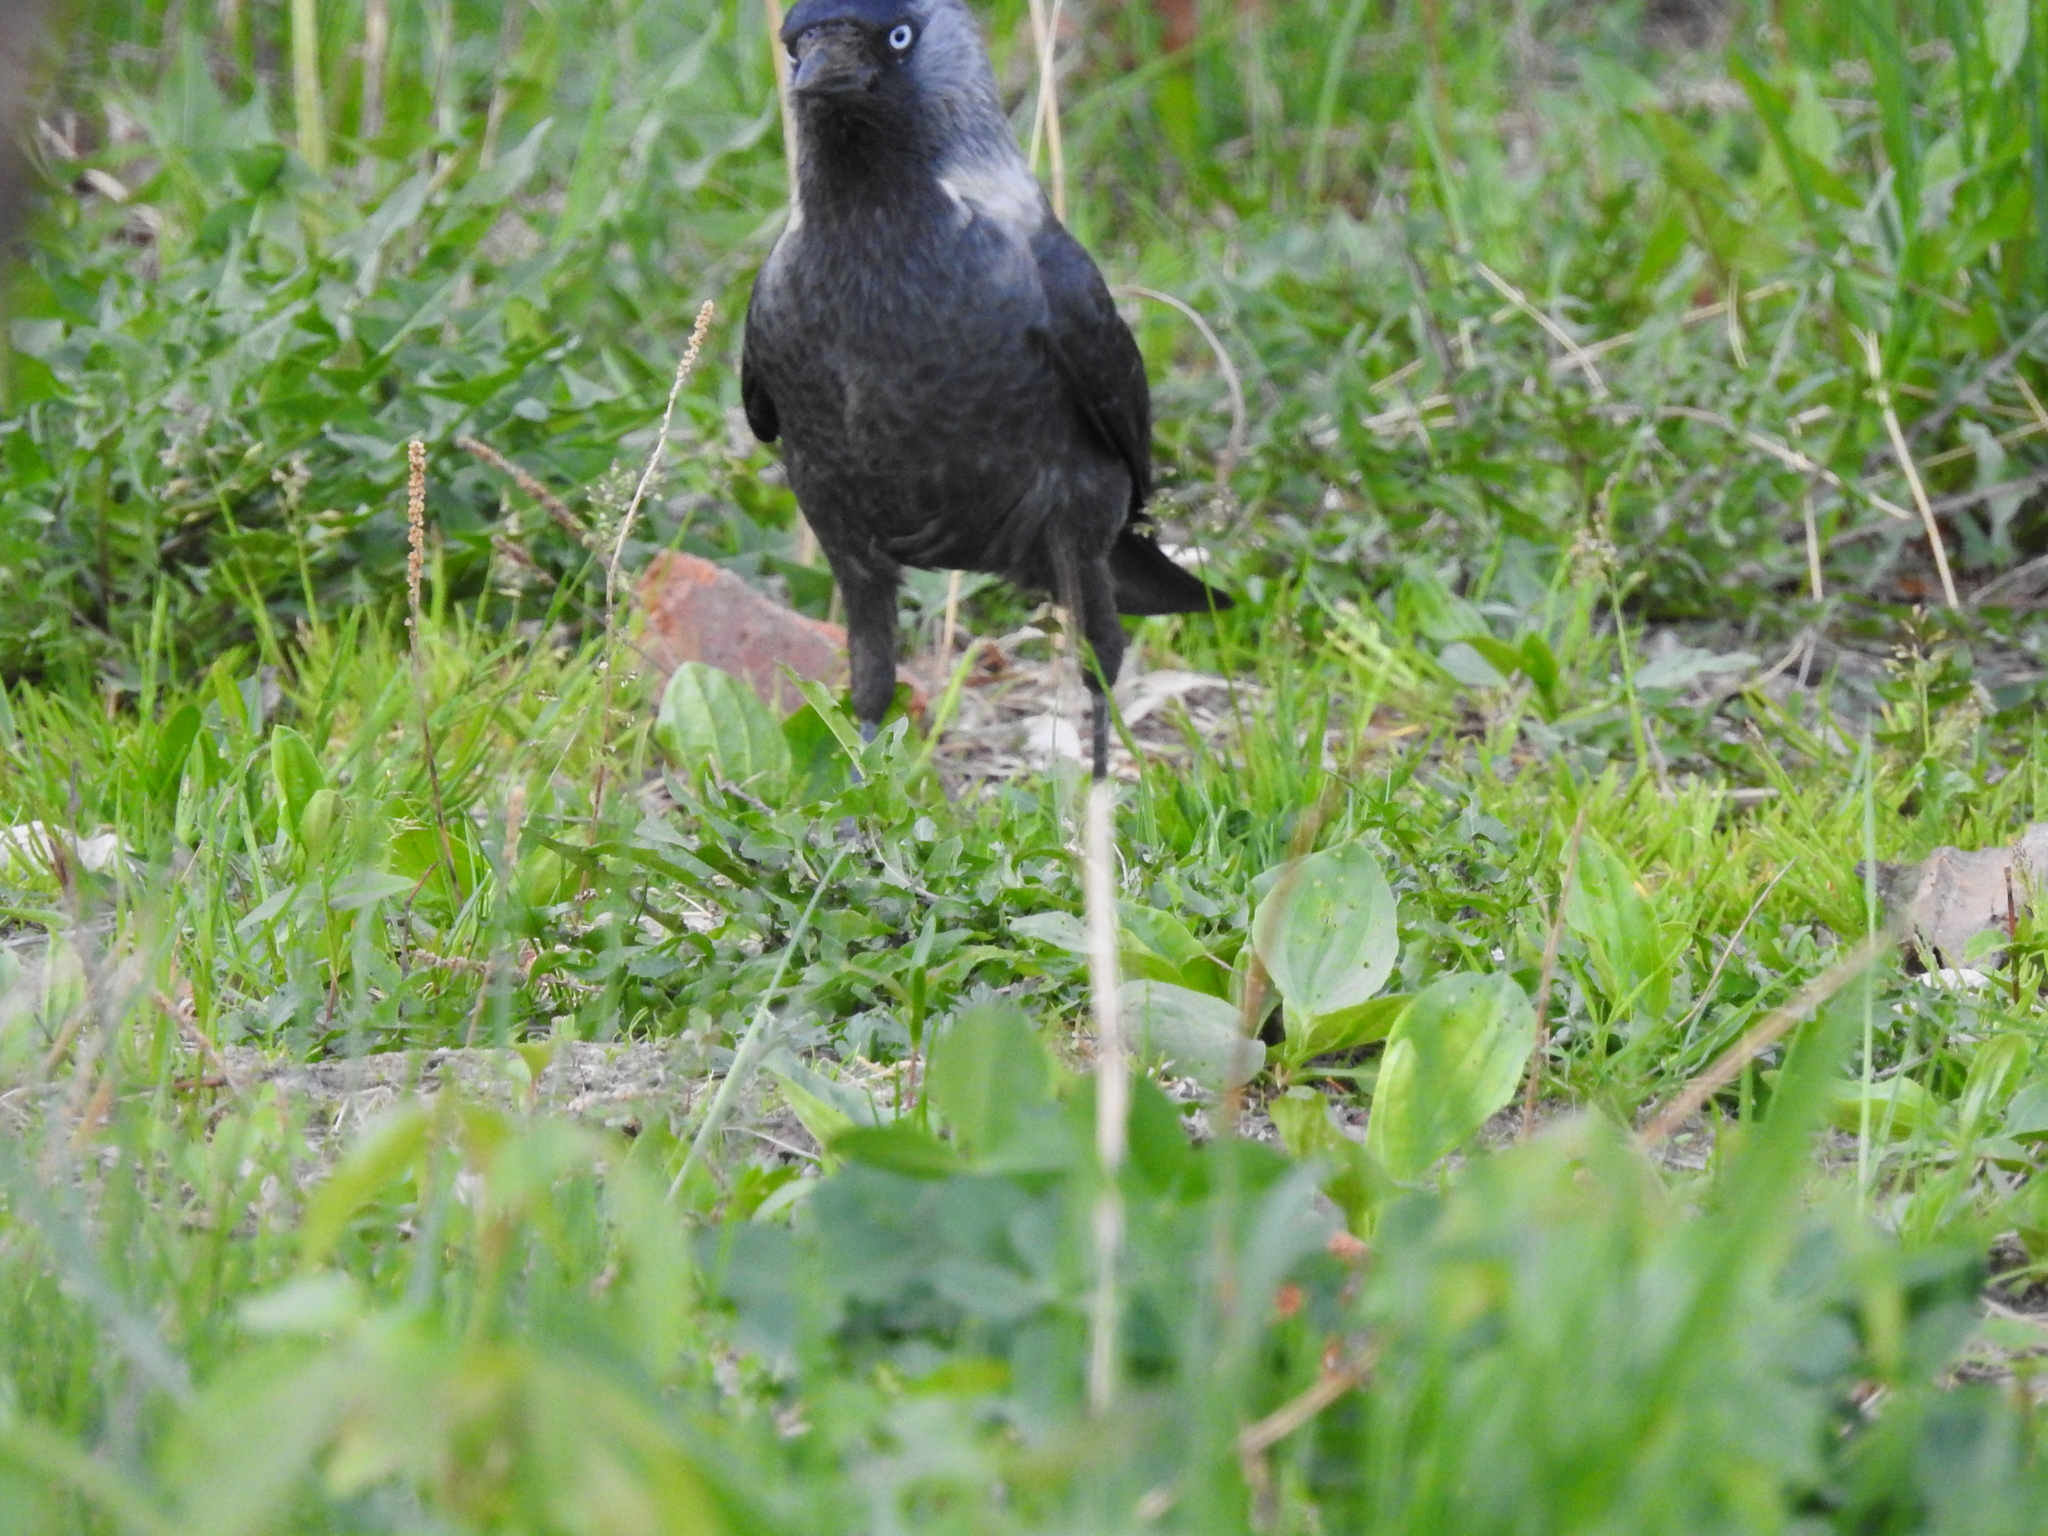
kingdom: Animalia
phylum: Chordata
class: Aves
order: Passeriformes
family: Corvidae
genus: Coloeus
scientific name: Coloeus monedula
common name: Western jackdaw
